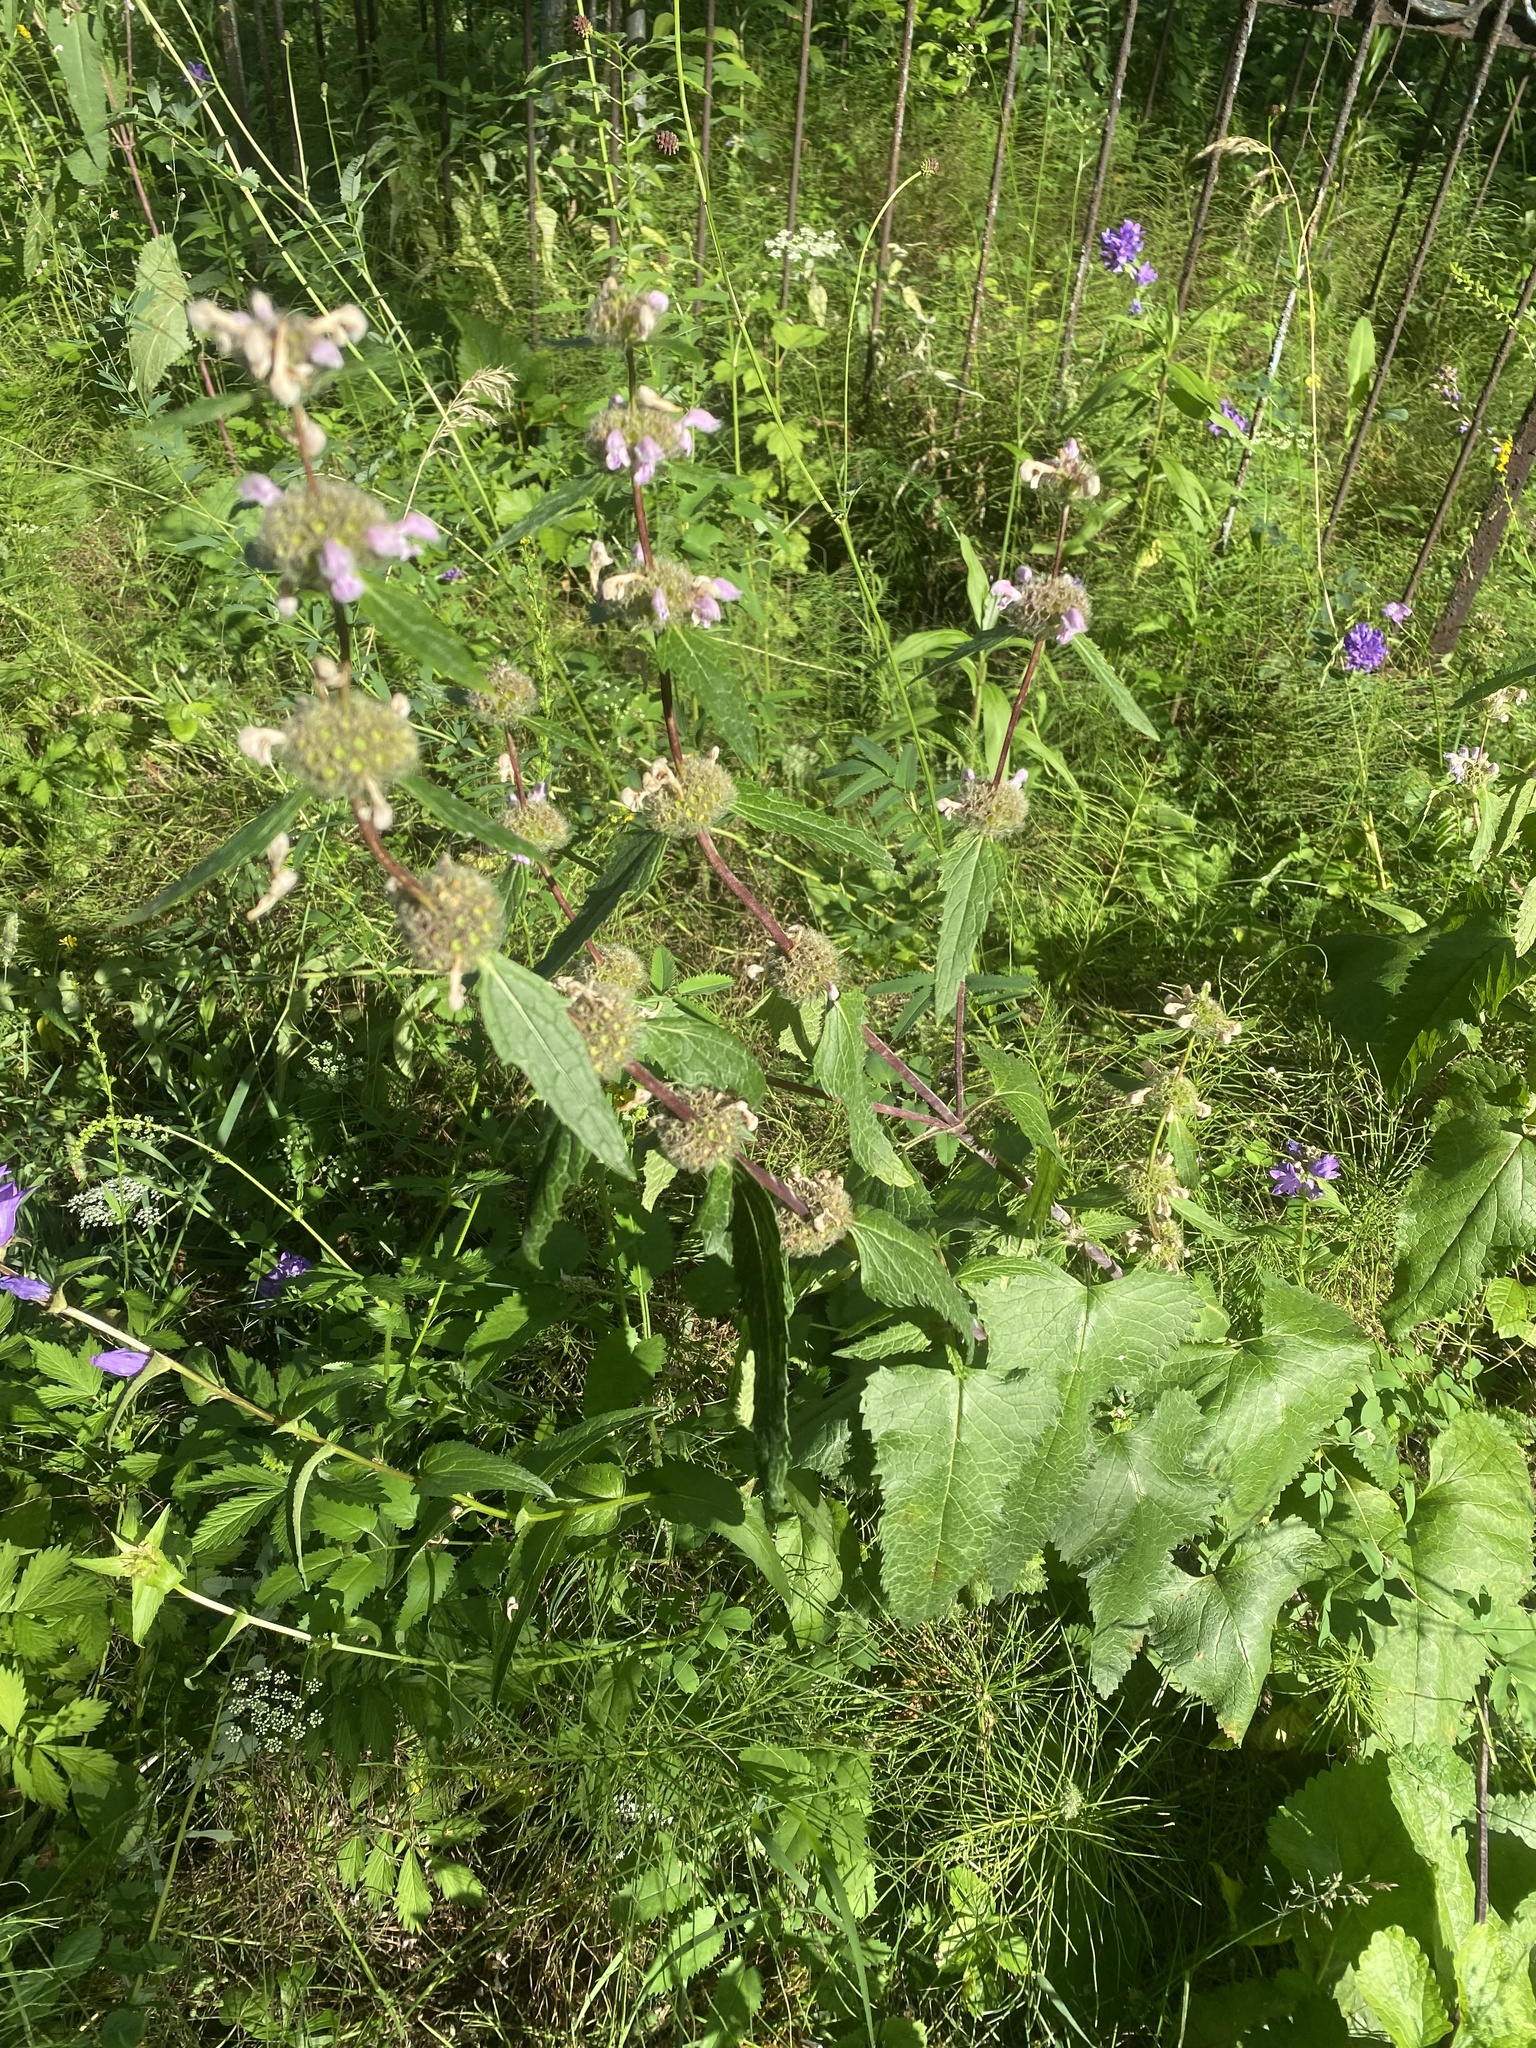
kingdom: Plantae
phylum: Tracheophyta
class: Magnoliopsida
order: Lamiales
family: Lamiaceae
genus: Phlomoides
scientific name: Phlomoides tuberosa
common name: Tuberous jerusalem sage
